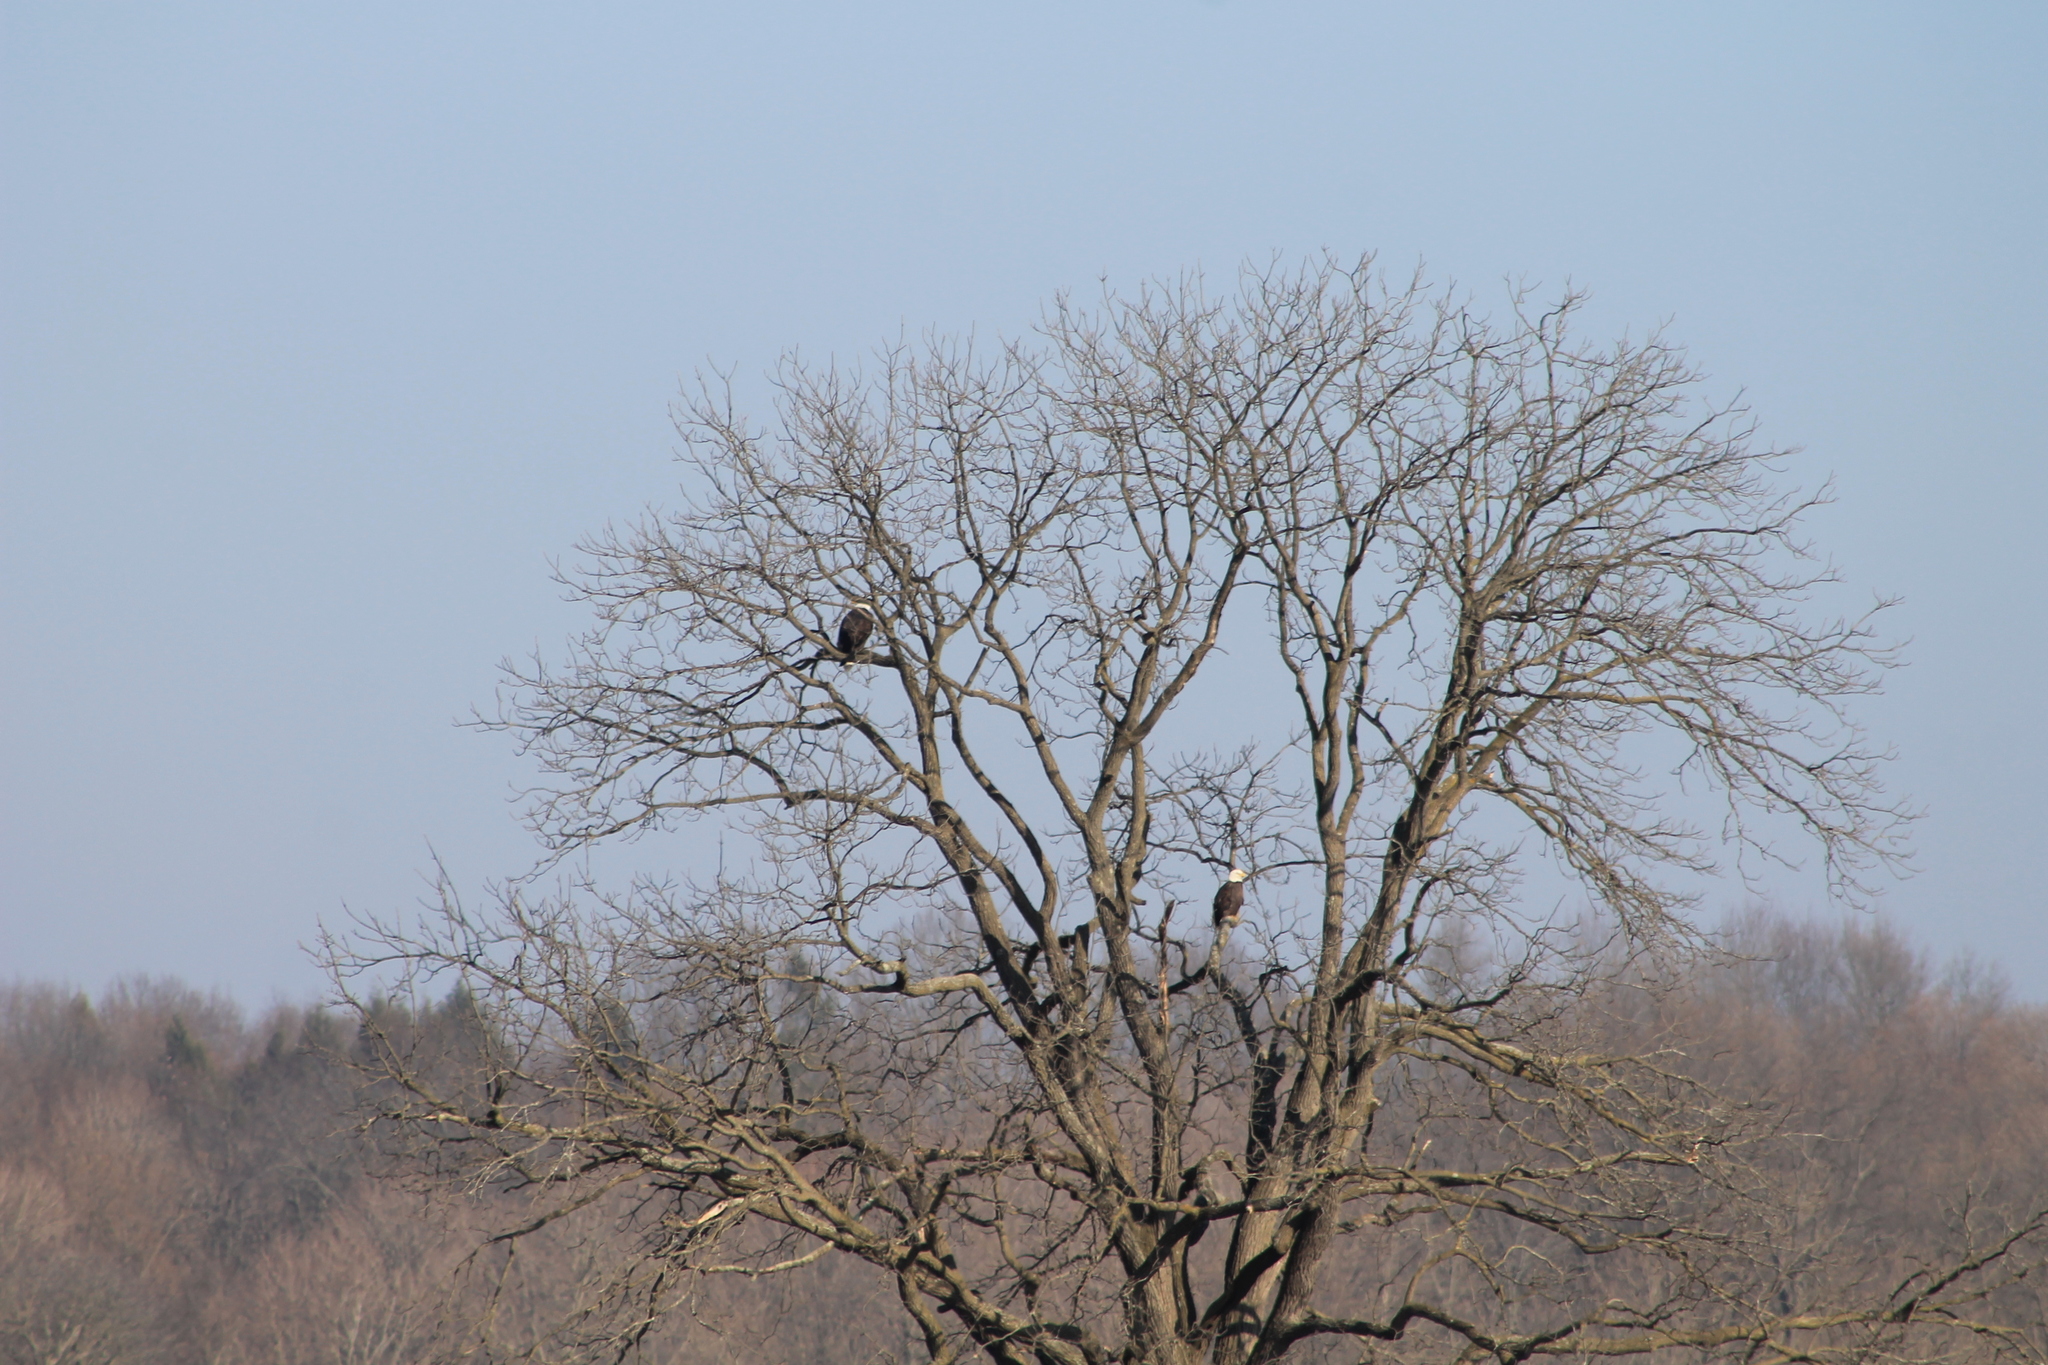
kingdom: Animalia
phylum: Chordata
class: Aves
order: Accipitriformes
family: Accipitridae
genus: Haliaeetus
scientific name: Haliaeetus leucocephalus
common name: Bald eagle
